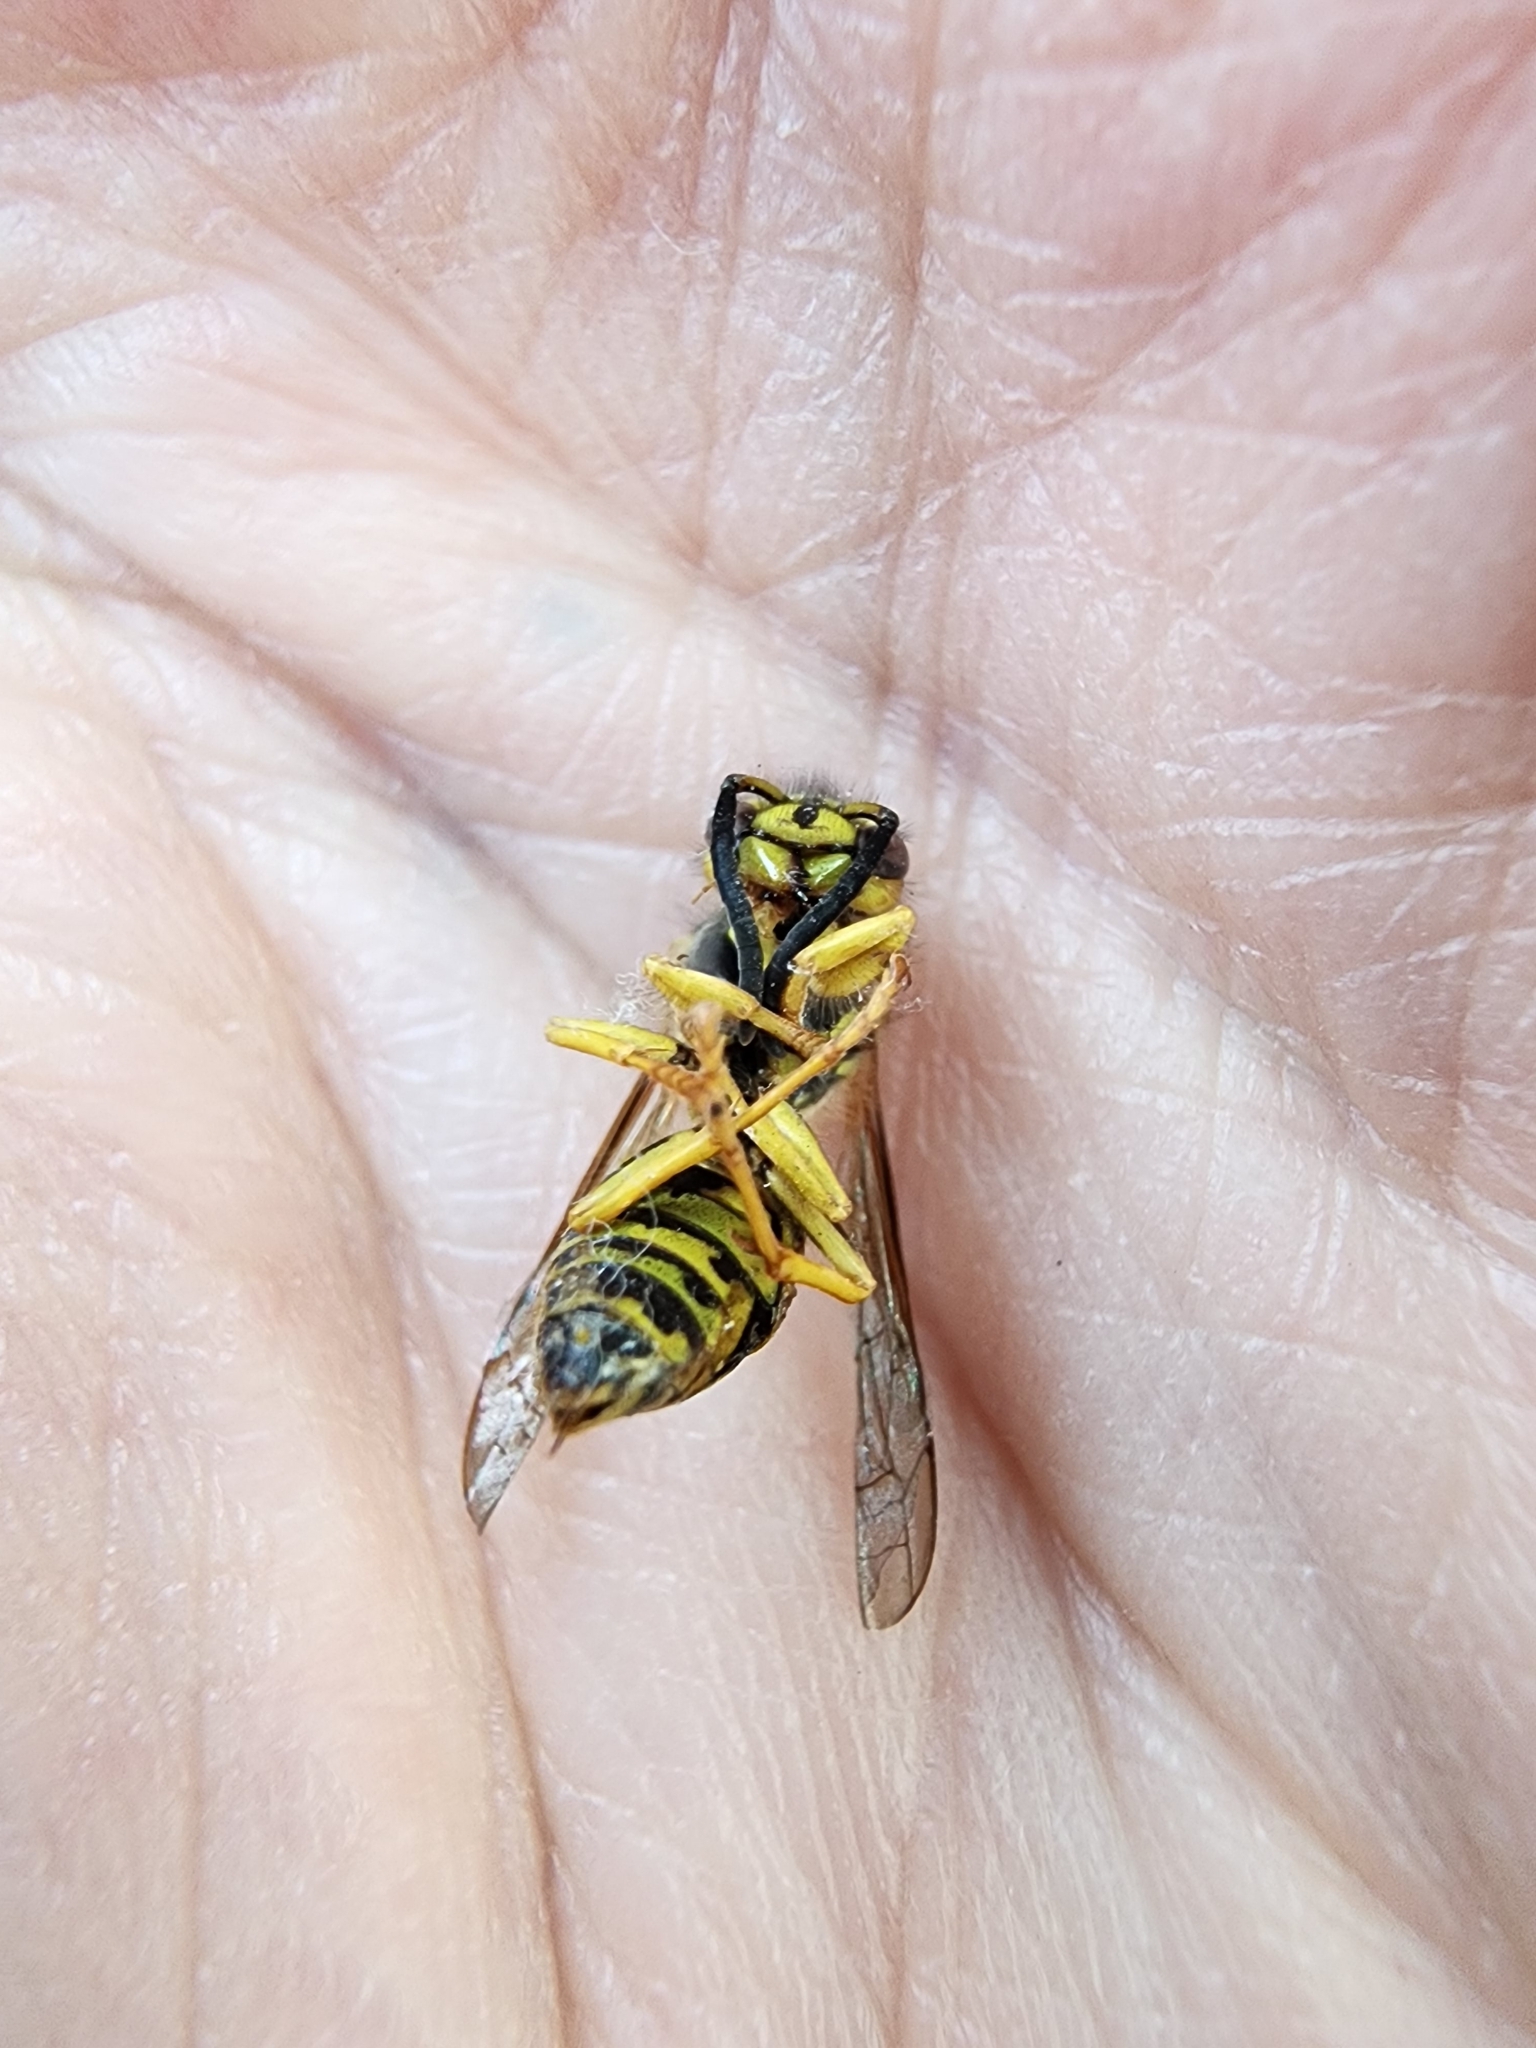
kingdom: Animalia
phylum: Arthropoda
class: Insecta
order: Hymenoptera
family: Vespidae
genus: Vespula
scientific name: Vespula squamosa
